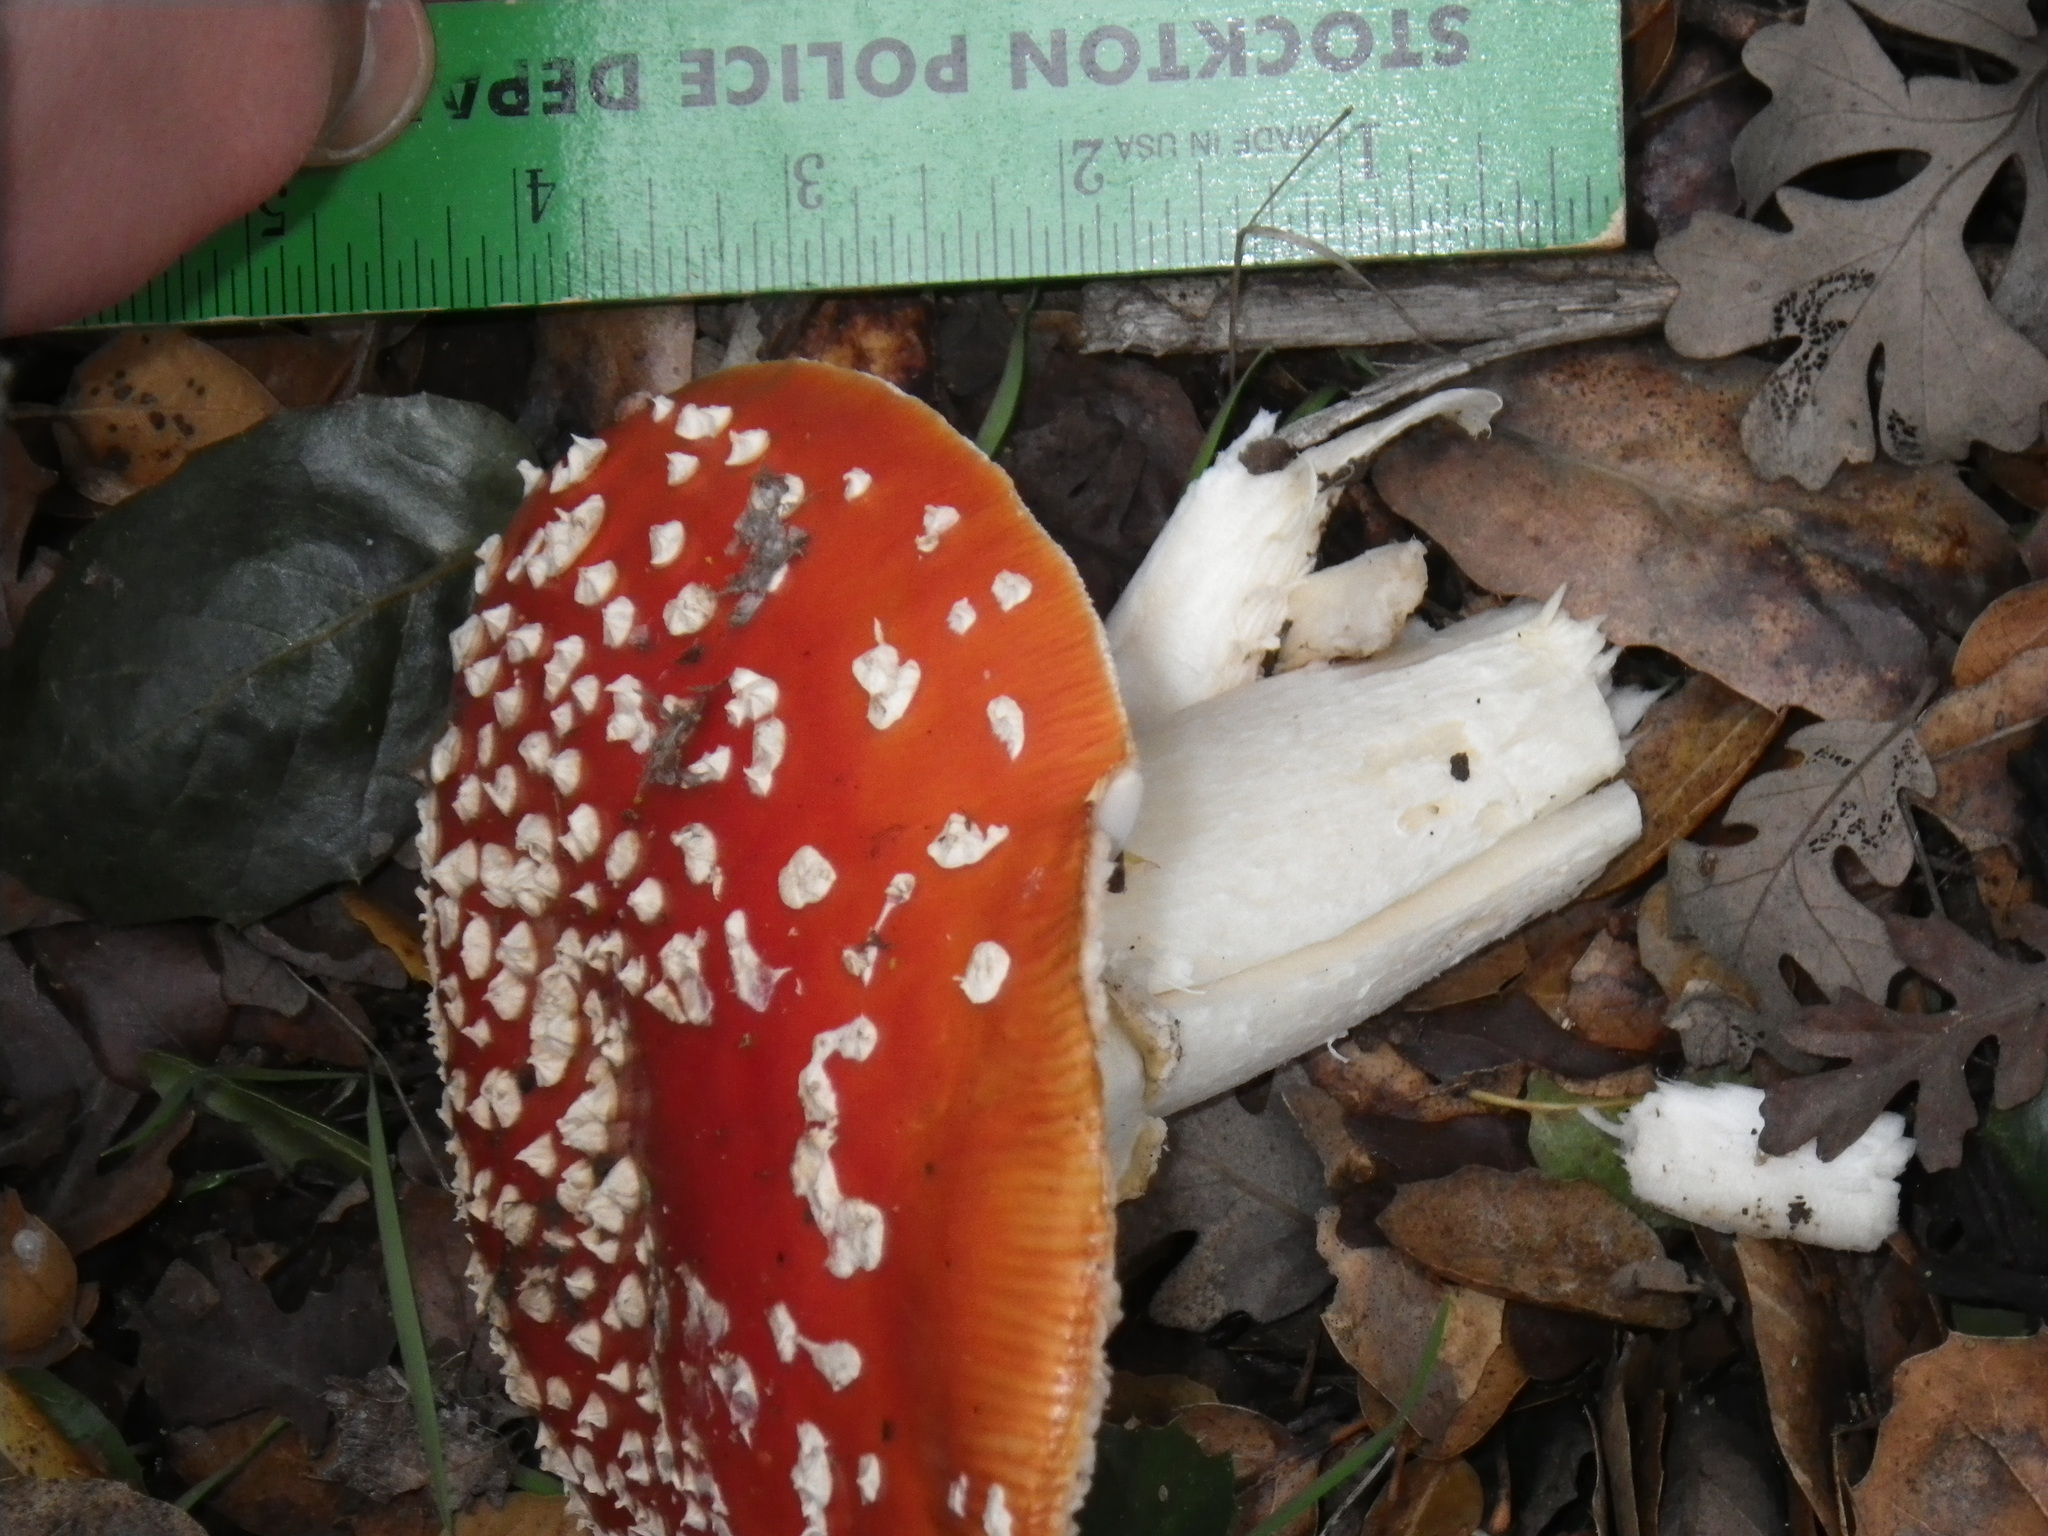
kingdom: Fungi
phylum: Basidiomycota
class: Agaricomycetes
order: Agaricales
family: Amanitaceae
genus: Amanita
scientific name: Amanita muscaria
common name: Fly agaric
